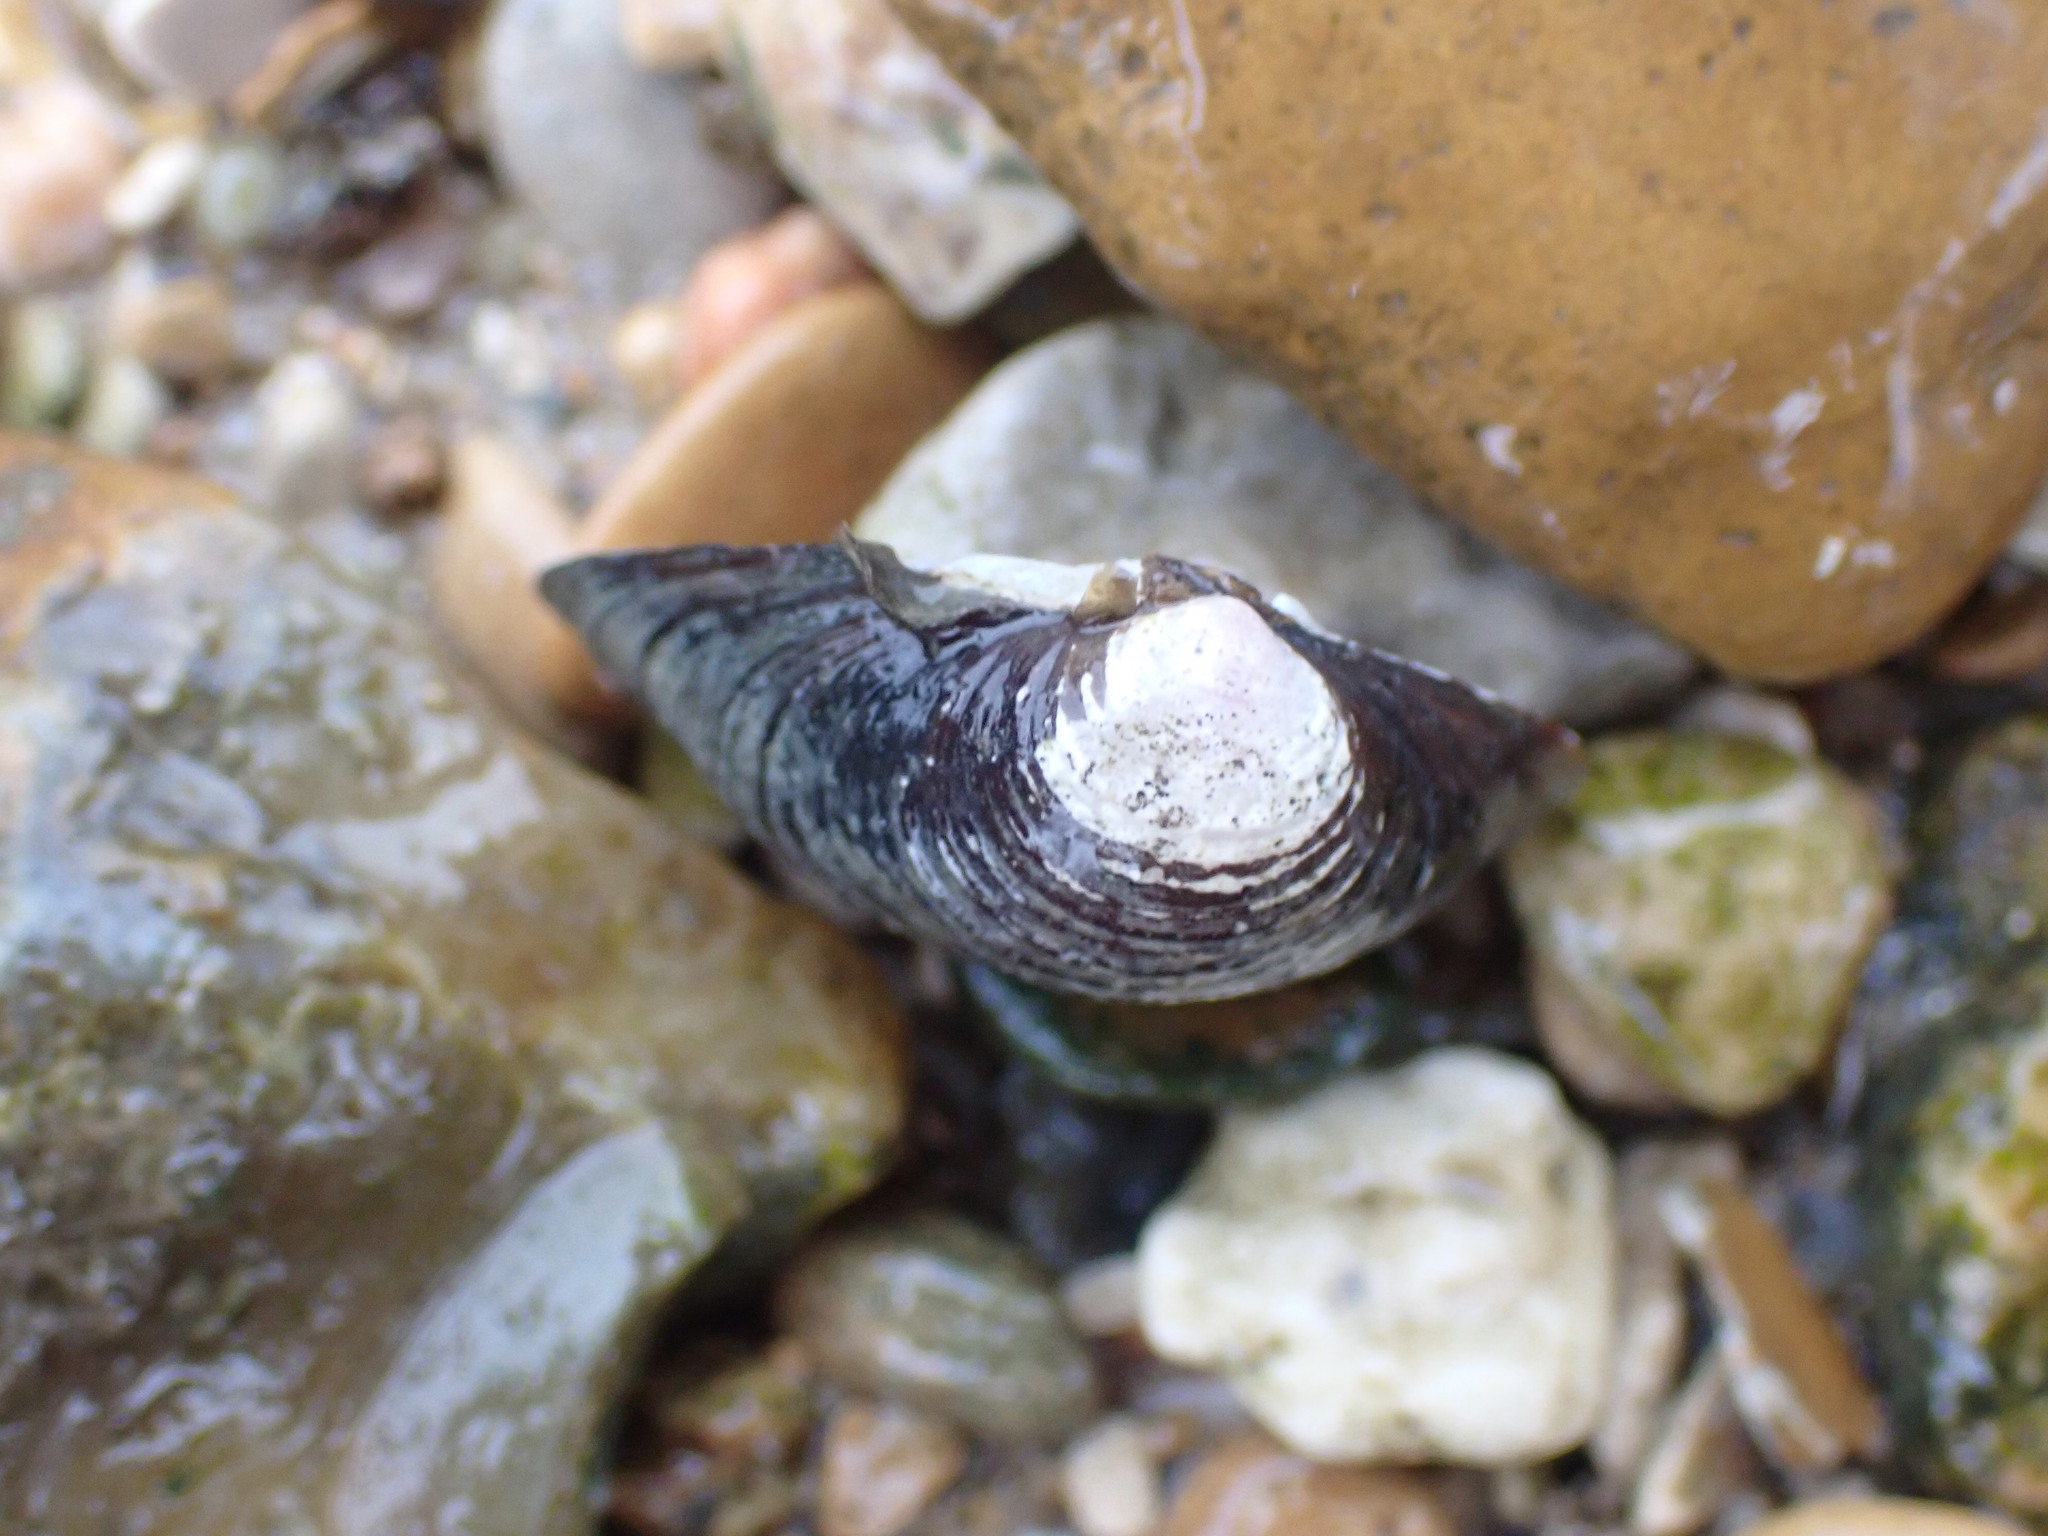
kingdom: Animalia
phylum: Mollusca
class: Bivalvia
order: Venerida
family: Cyrenidae
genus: Corbicula
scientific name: Corbicula fluminea
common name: Asian clam
